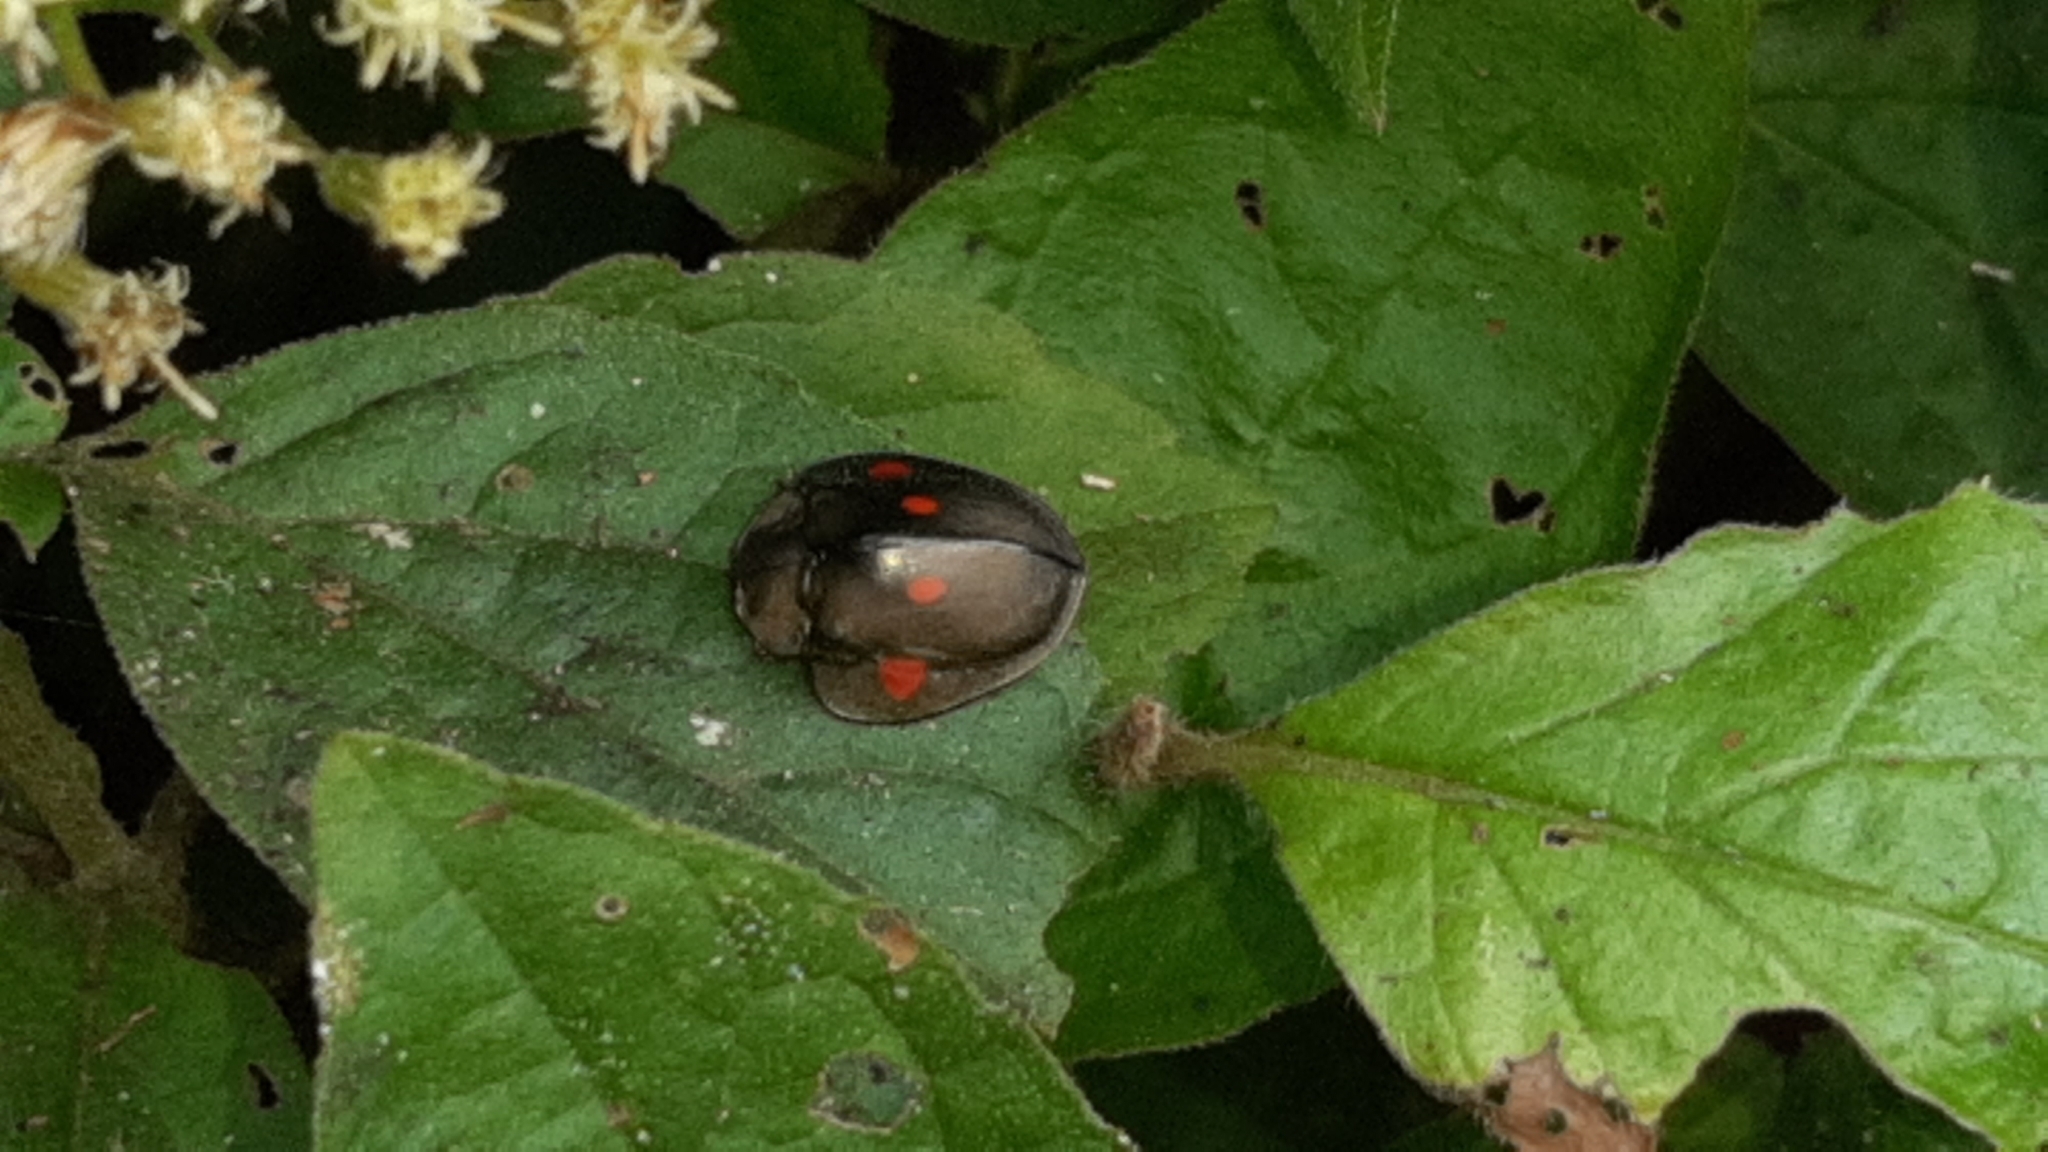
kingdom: Animalia
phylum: Arthropoda
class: Insecta
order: Coleoptera
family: Chrysomelidae
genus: Stolas
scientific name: Stolas lebasii
